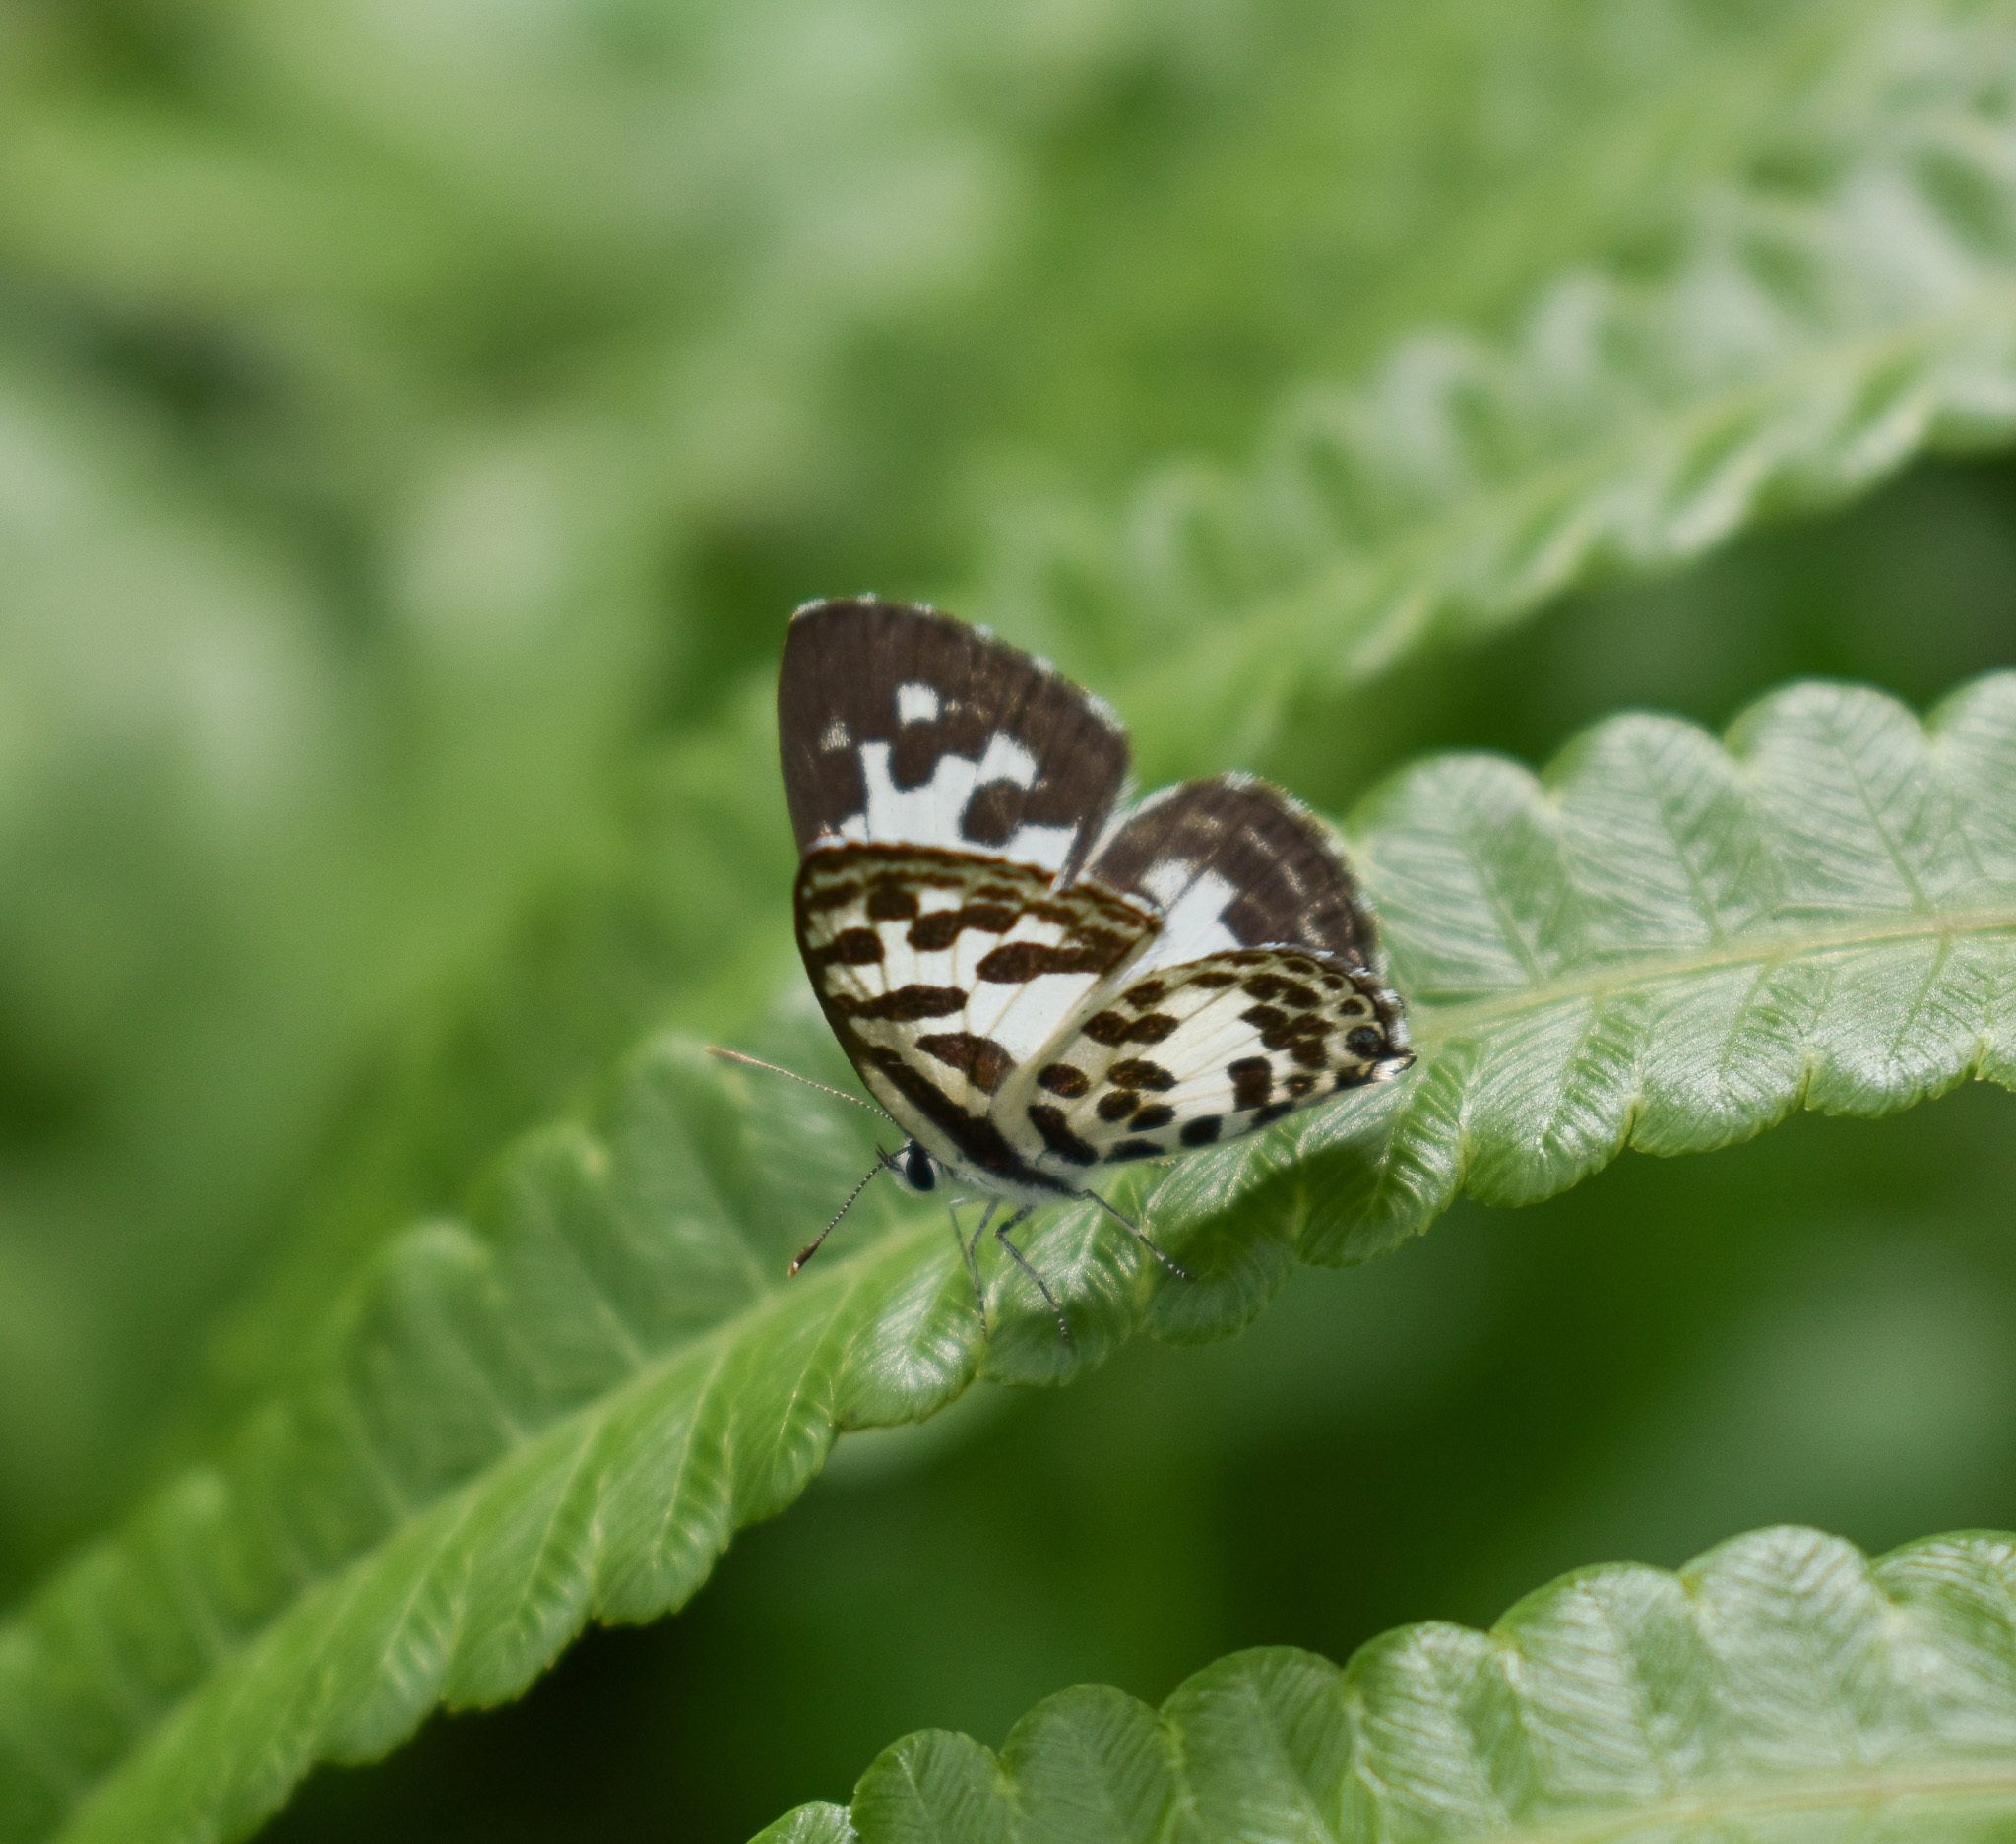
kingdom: Animalia
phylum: Arthropoda
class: Insecta
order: Lepidoptera
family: Lycaenidae
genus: Castalius
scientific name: Castalius rosimon
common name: Common pierrot
